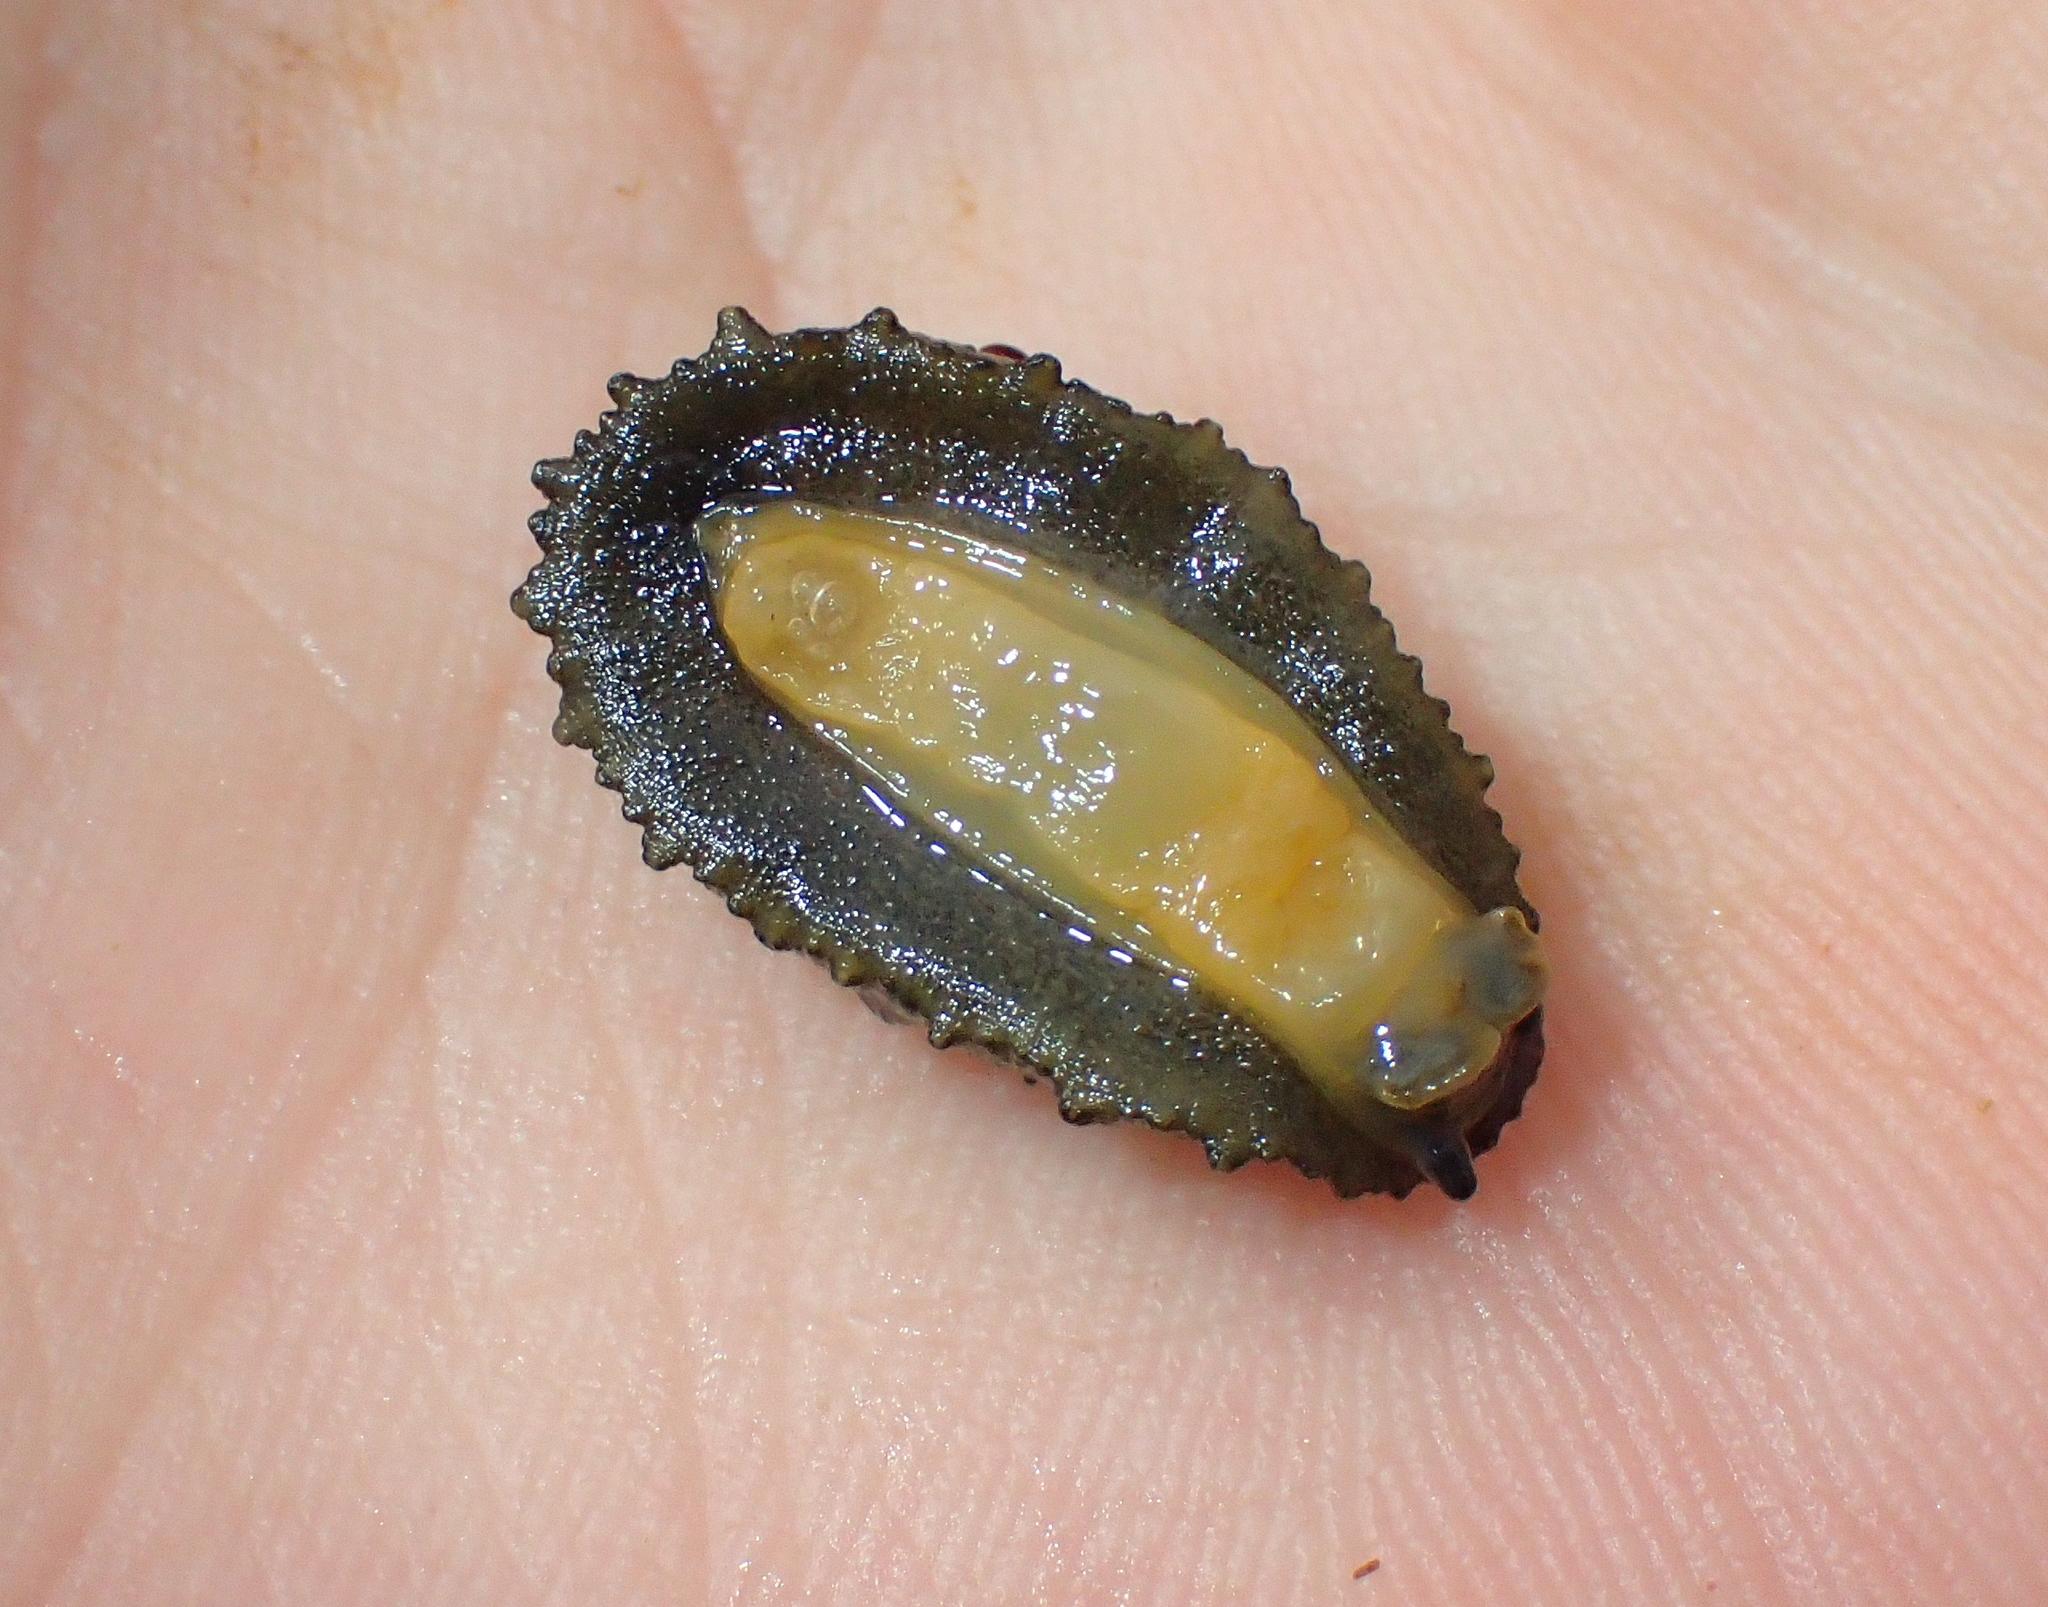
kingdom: Animalia
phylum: Mollusca
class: Gastropoda
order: Systellommatophora
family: Onchidiidae
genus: Onchidella
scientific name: Onchidella celtica
